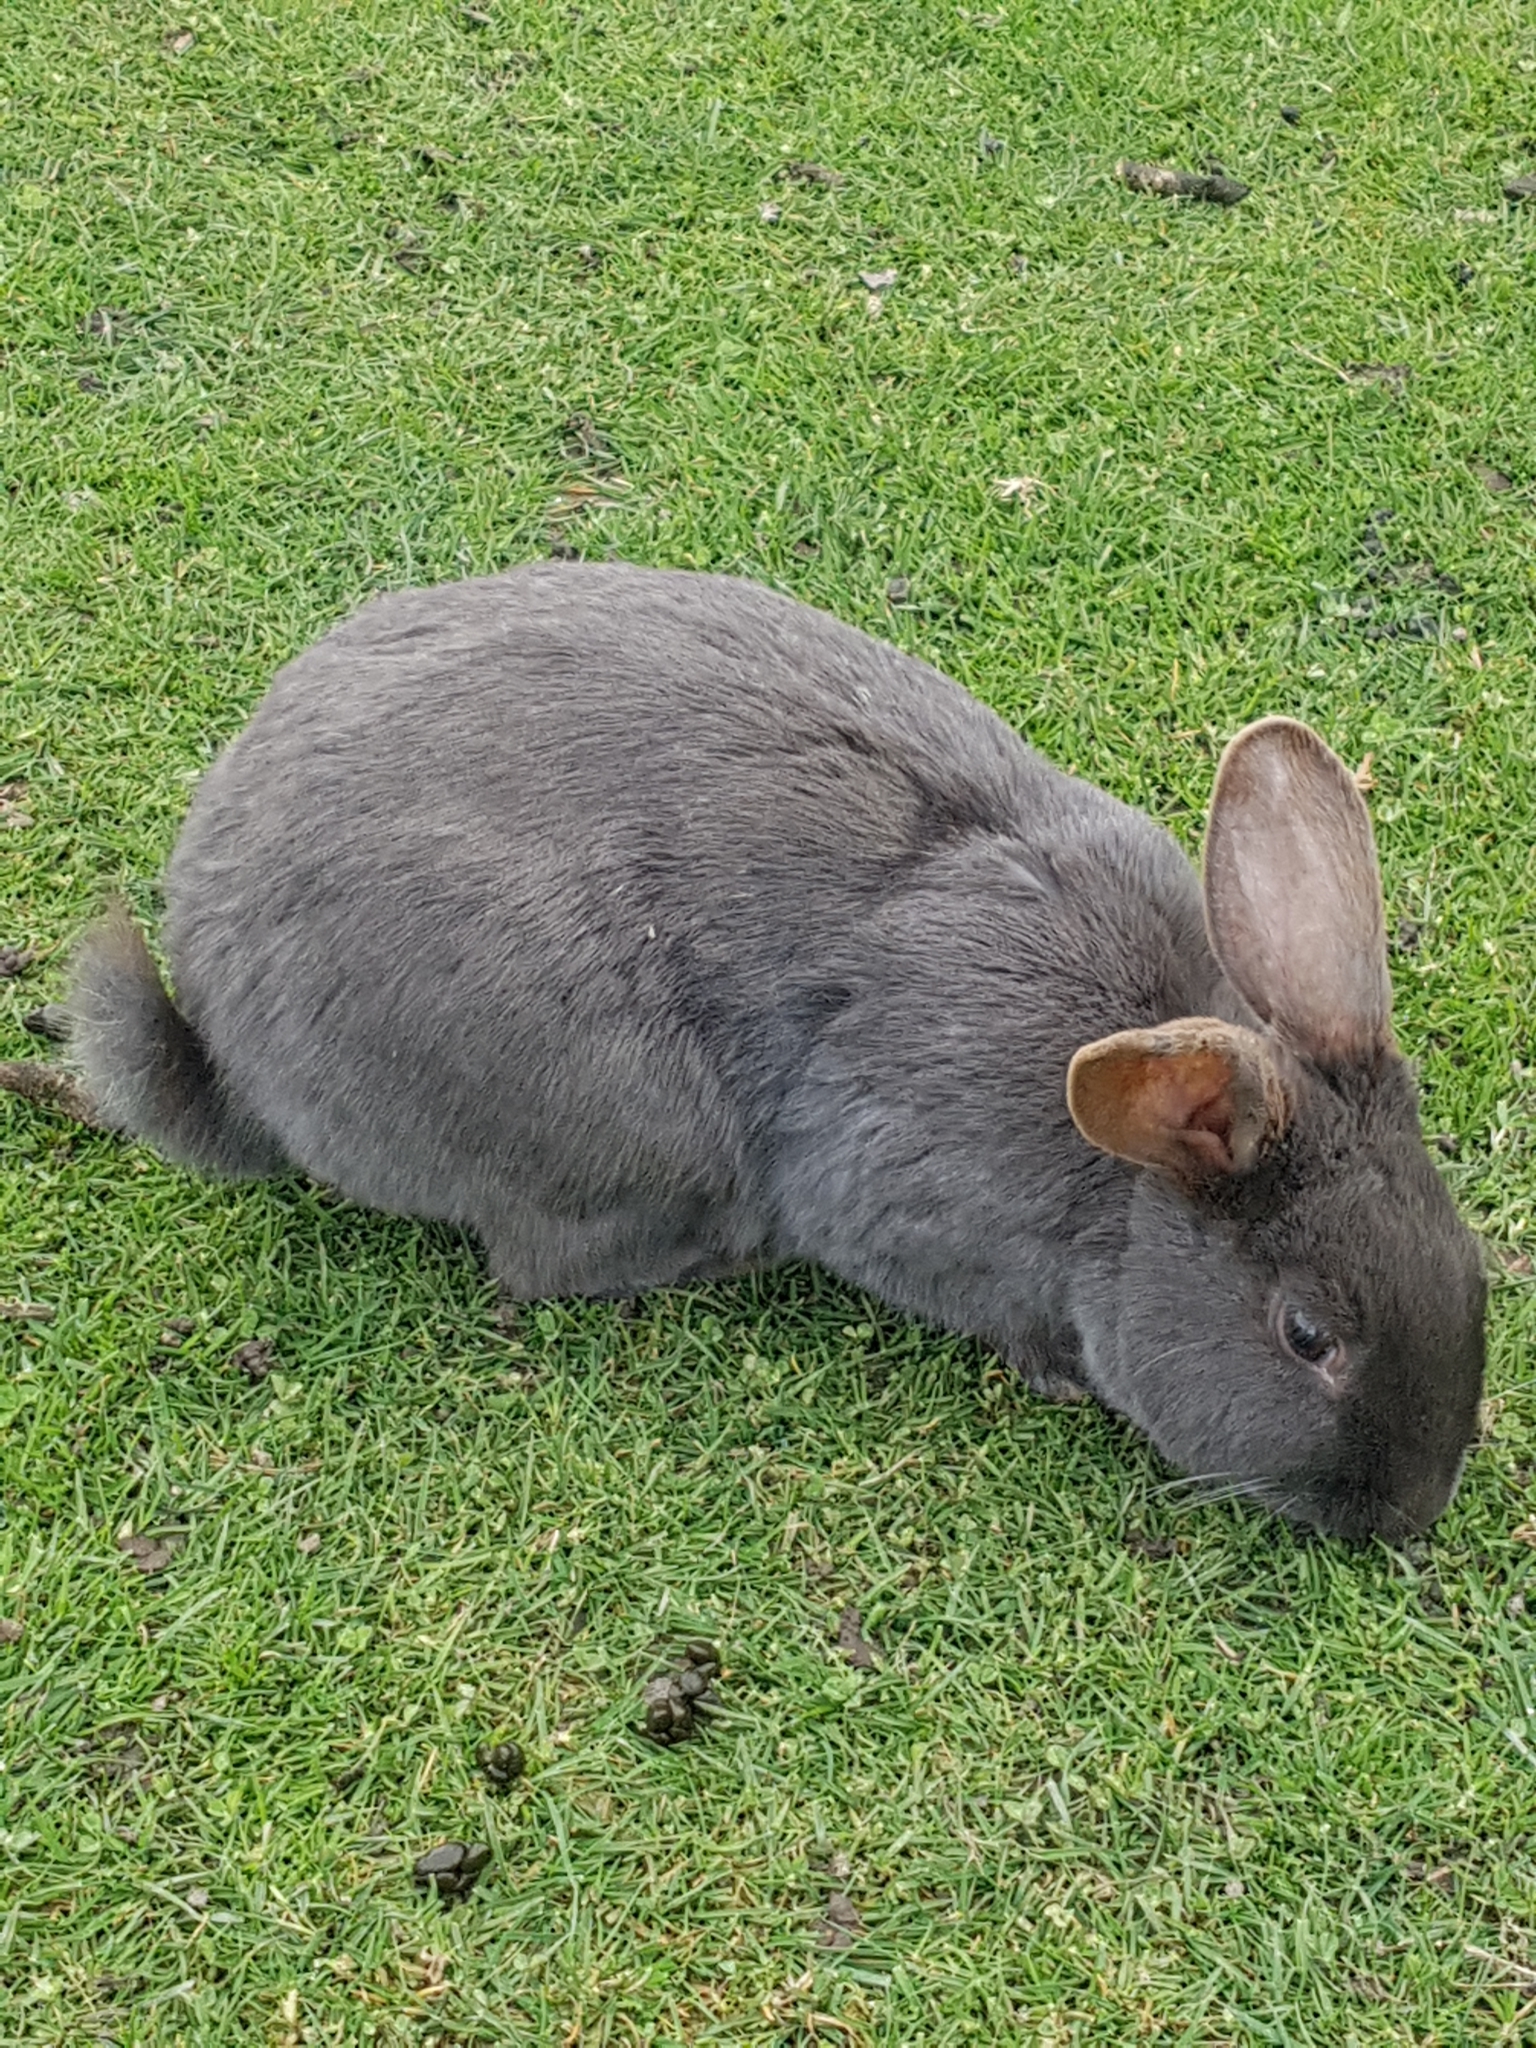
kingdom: Animalia
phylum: Chordata
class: Mammalia
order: Lagomorpha
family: Leporidae
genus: Oryctolagus
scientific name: Oryctolagus cuniculus
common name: European rabbit
